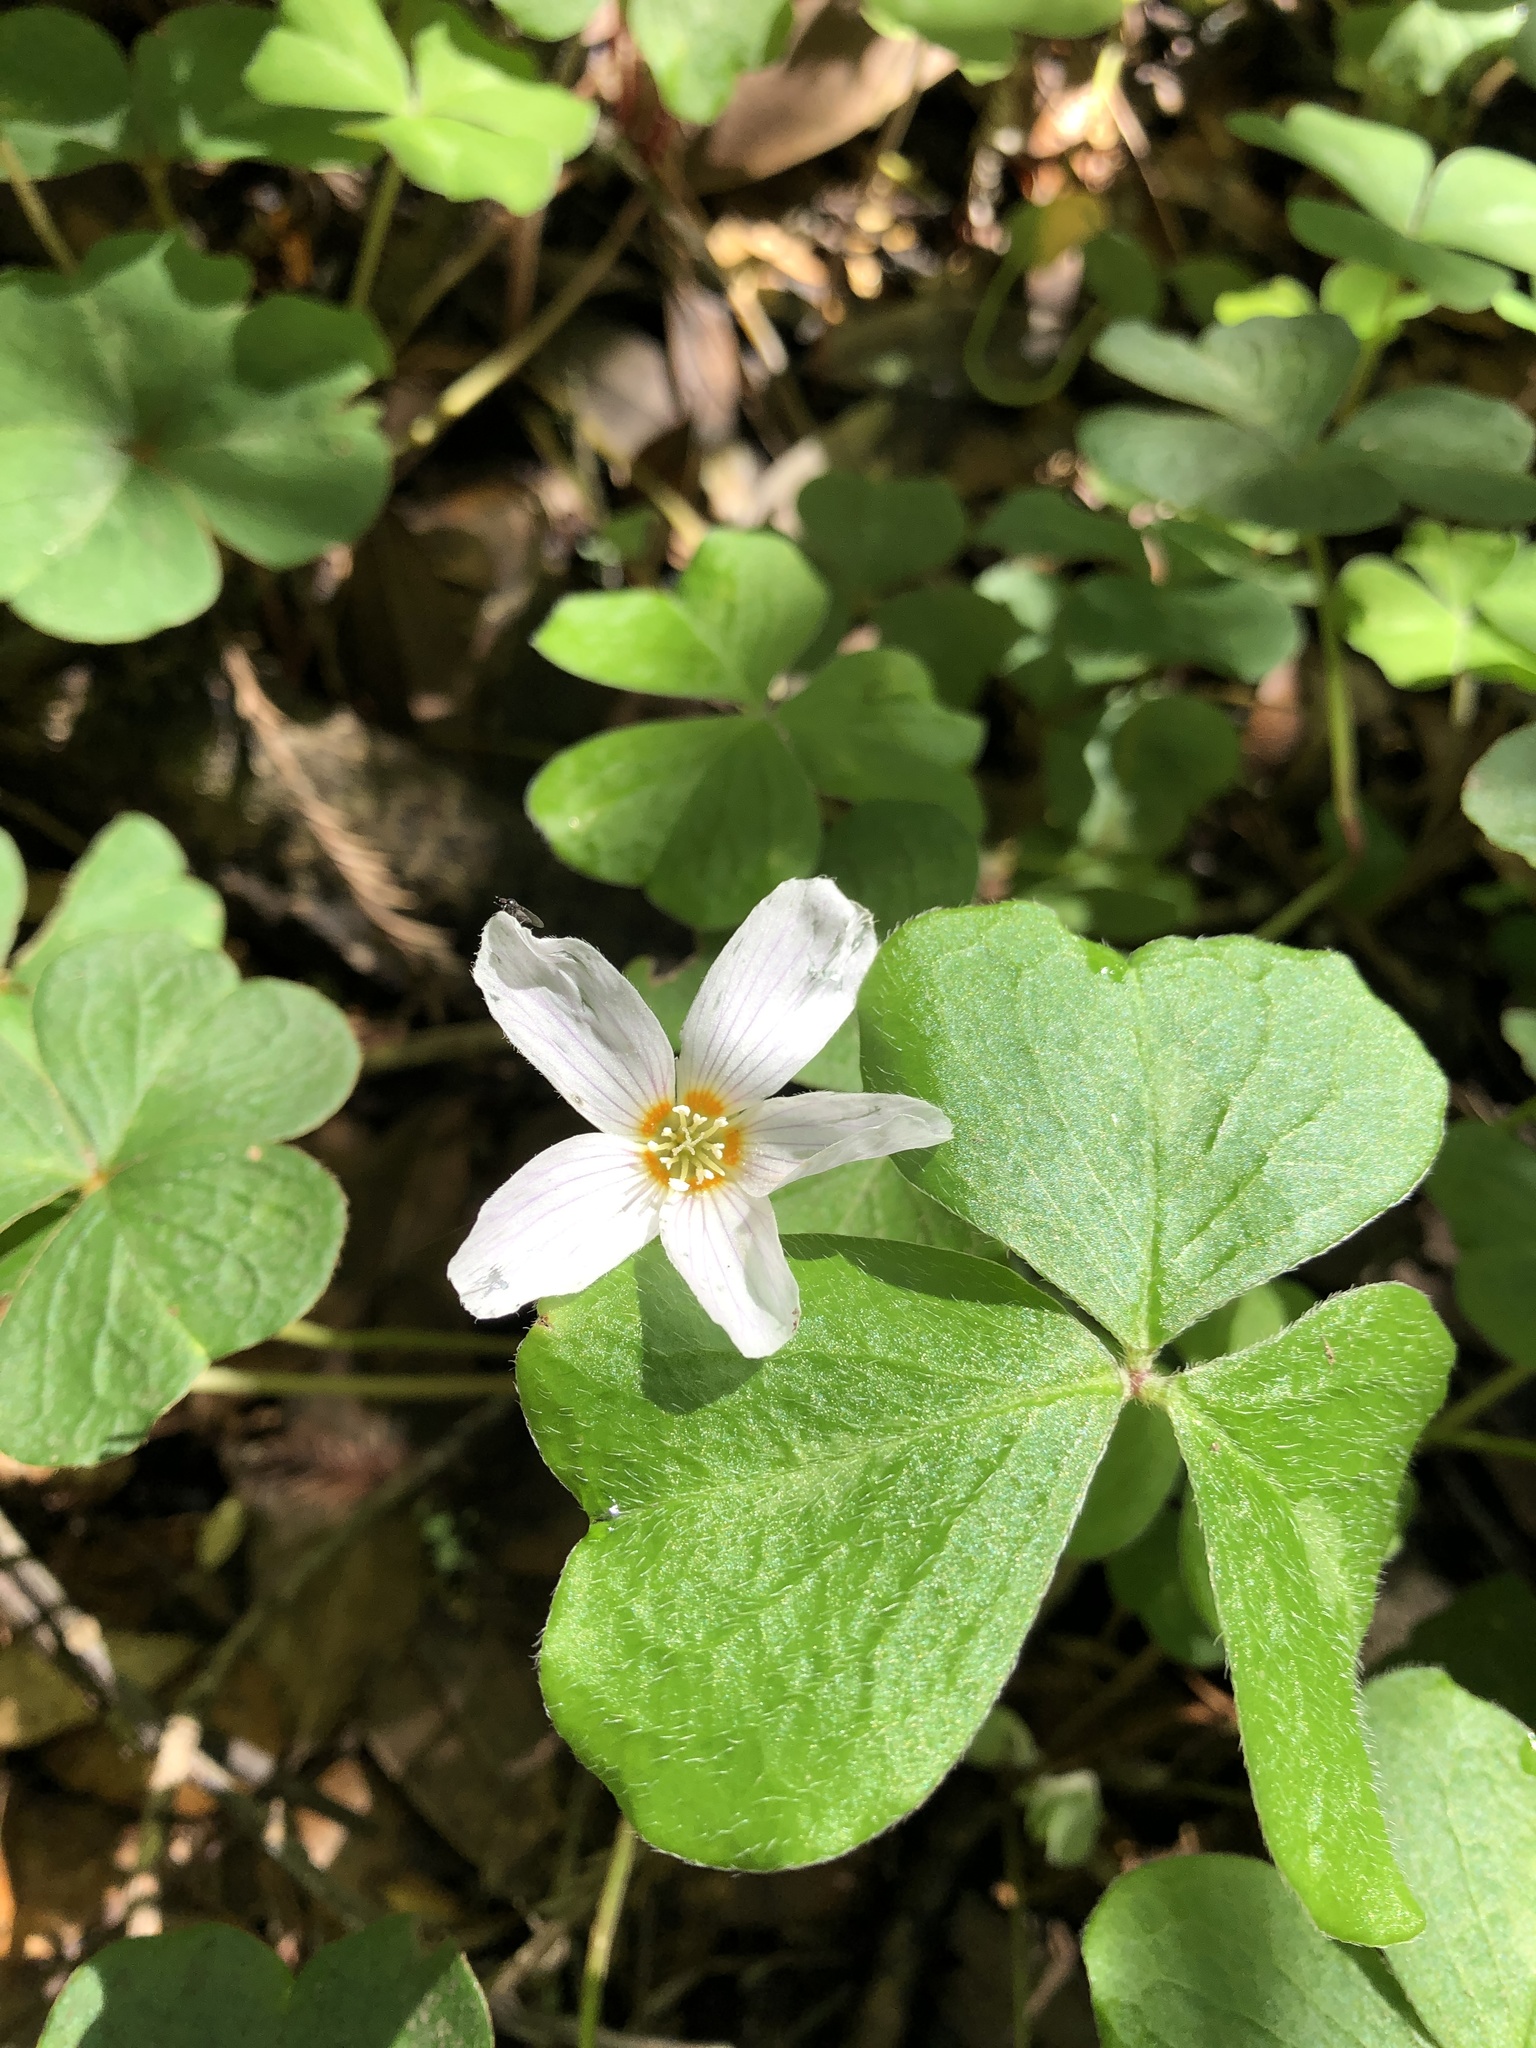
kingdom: Plantae
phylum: Tracheophyta
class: Magnoliopsida
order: Oxalidales
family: Oxalidaceae
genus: Oxalis
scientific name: Oxalis oregana
